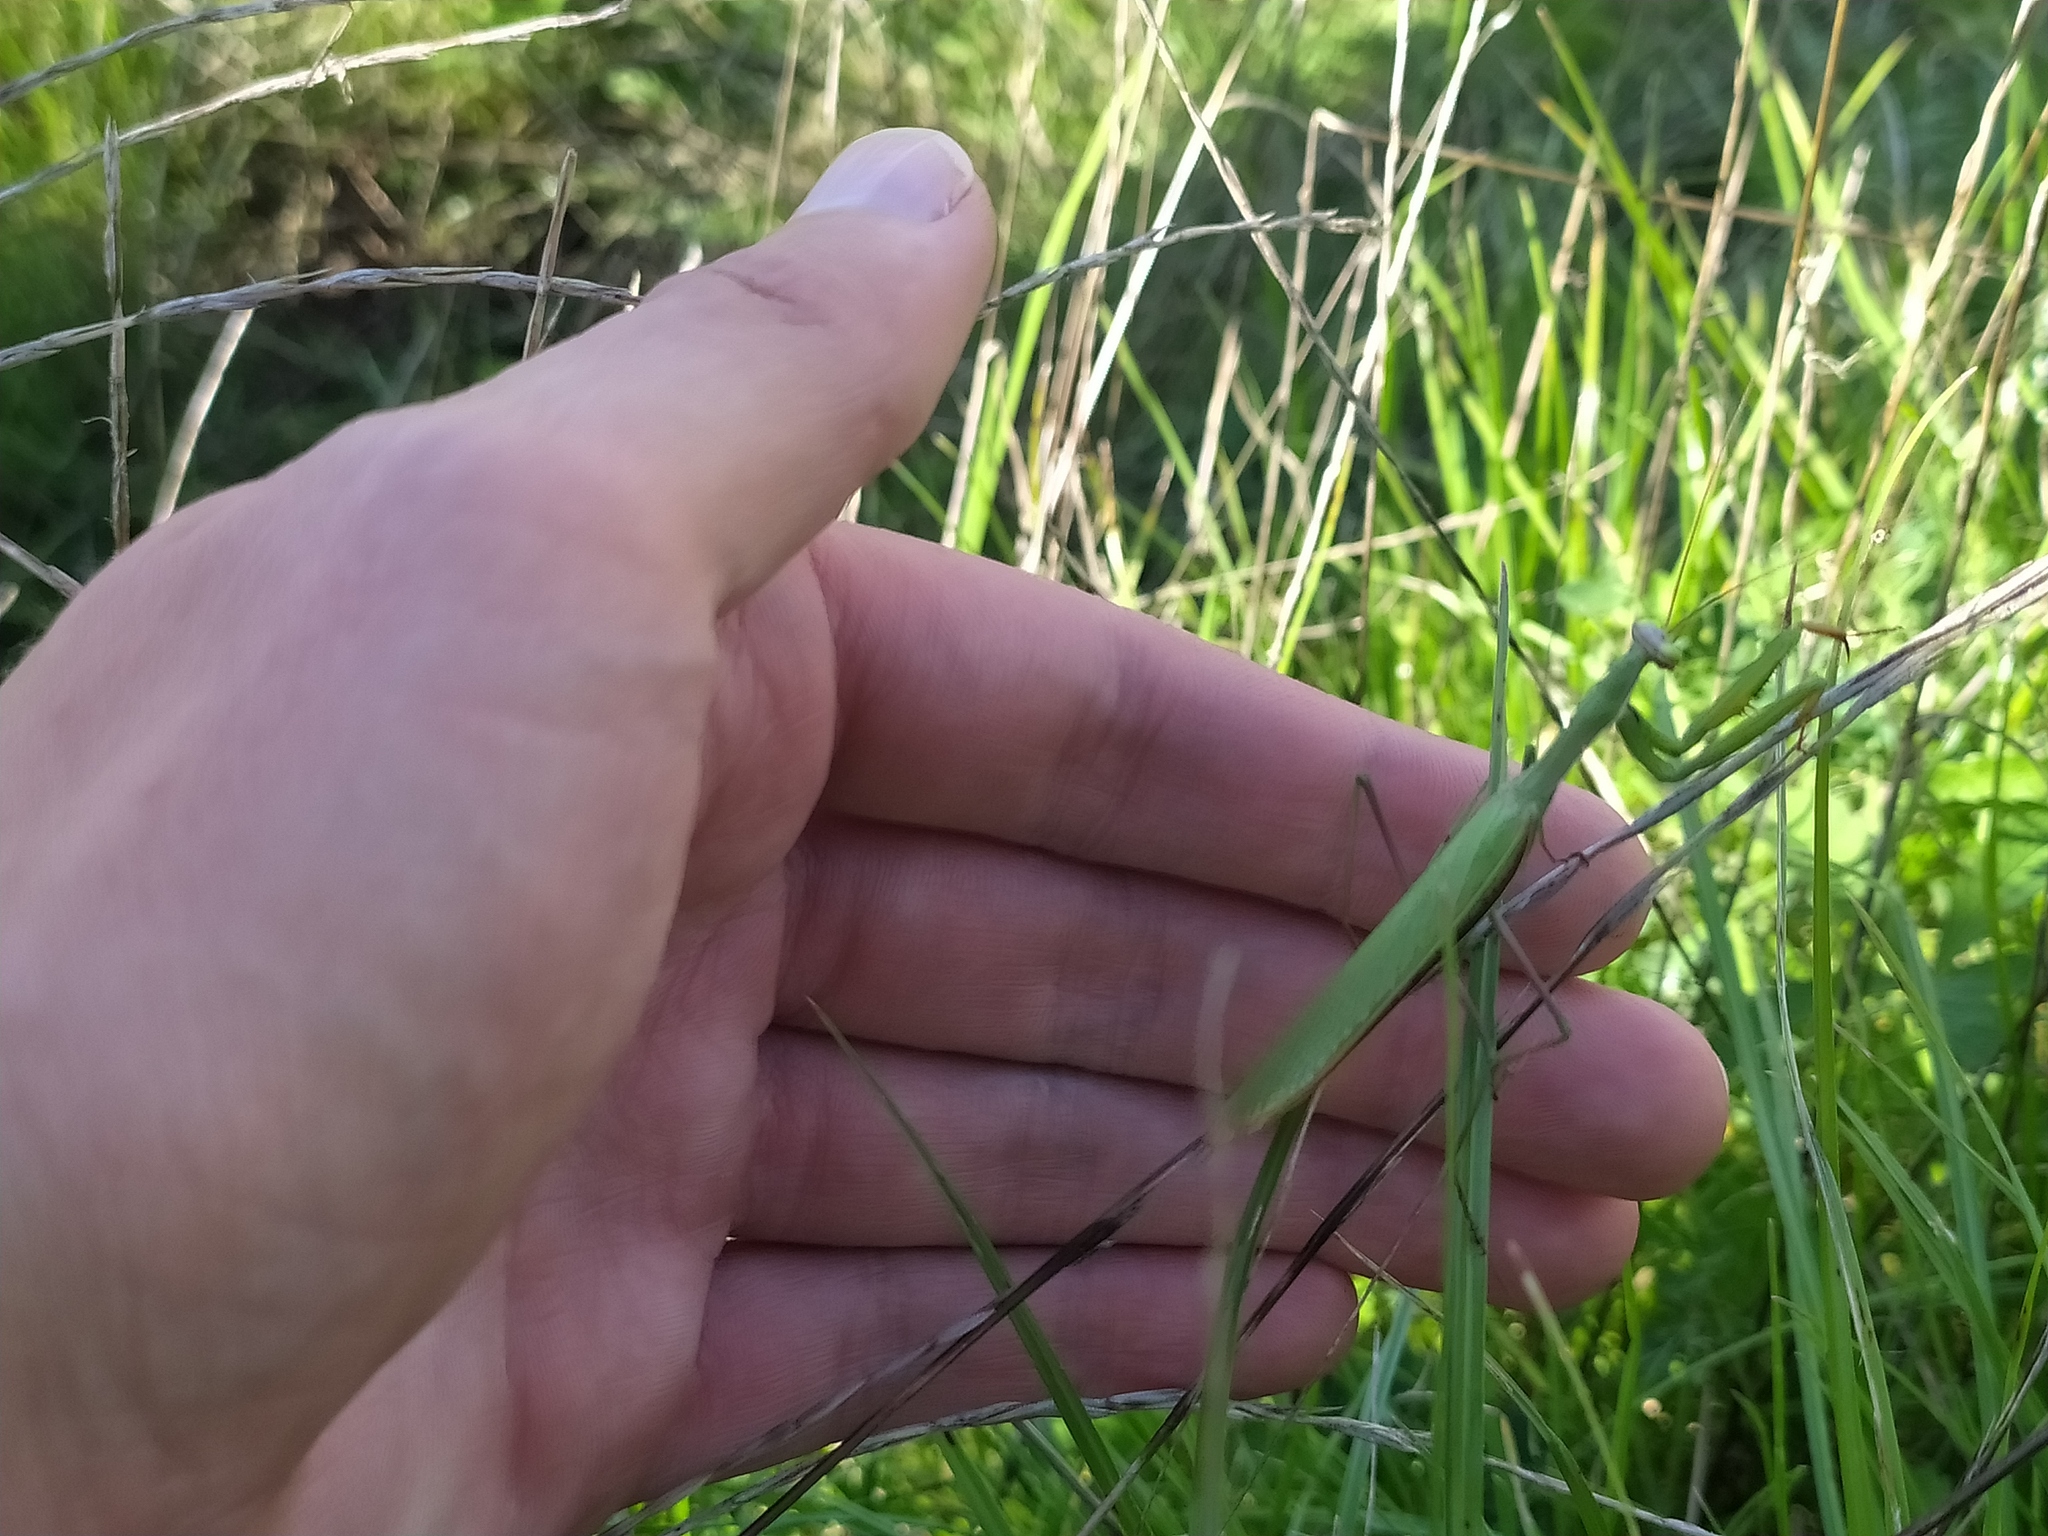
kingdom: Animalia
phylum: Arthropoda
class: Insecta
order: Mantodea
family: Mantidae
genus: Mantis
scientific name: Mantis religiosa
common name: Praying mantis
